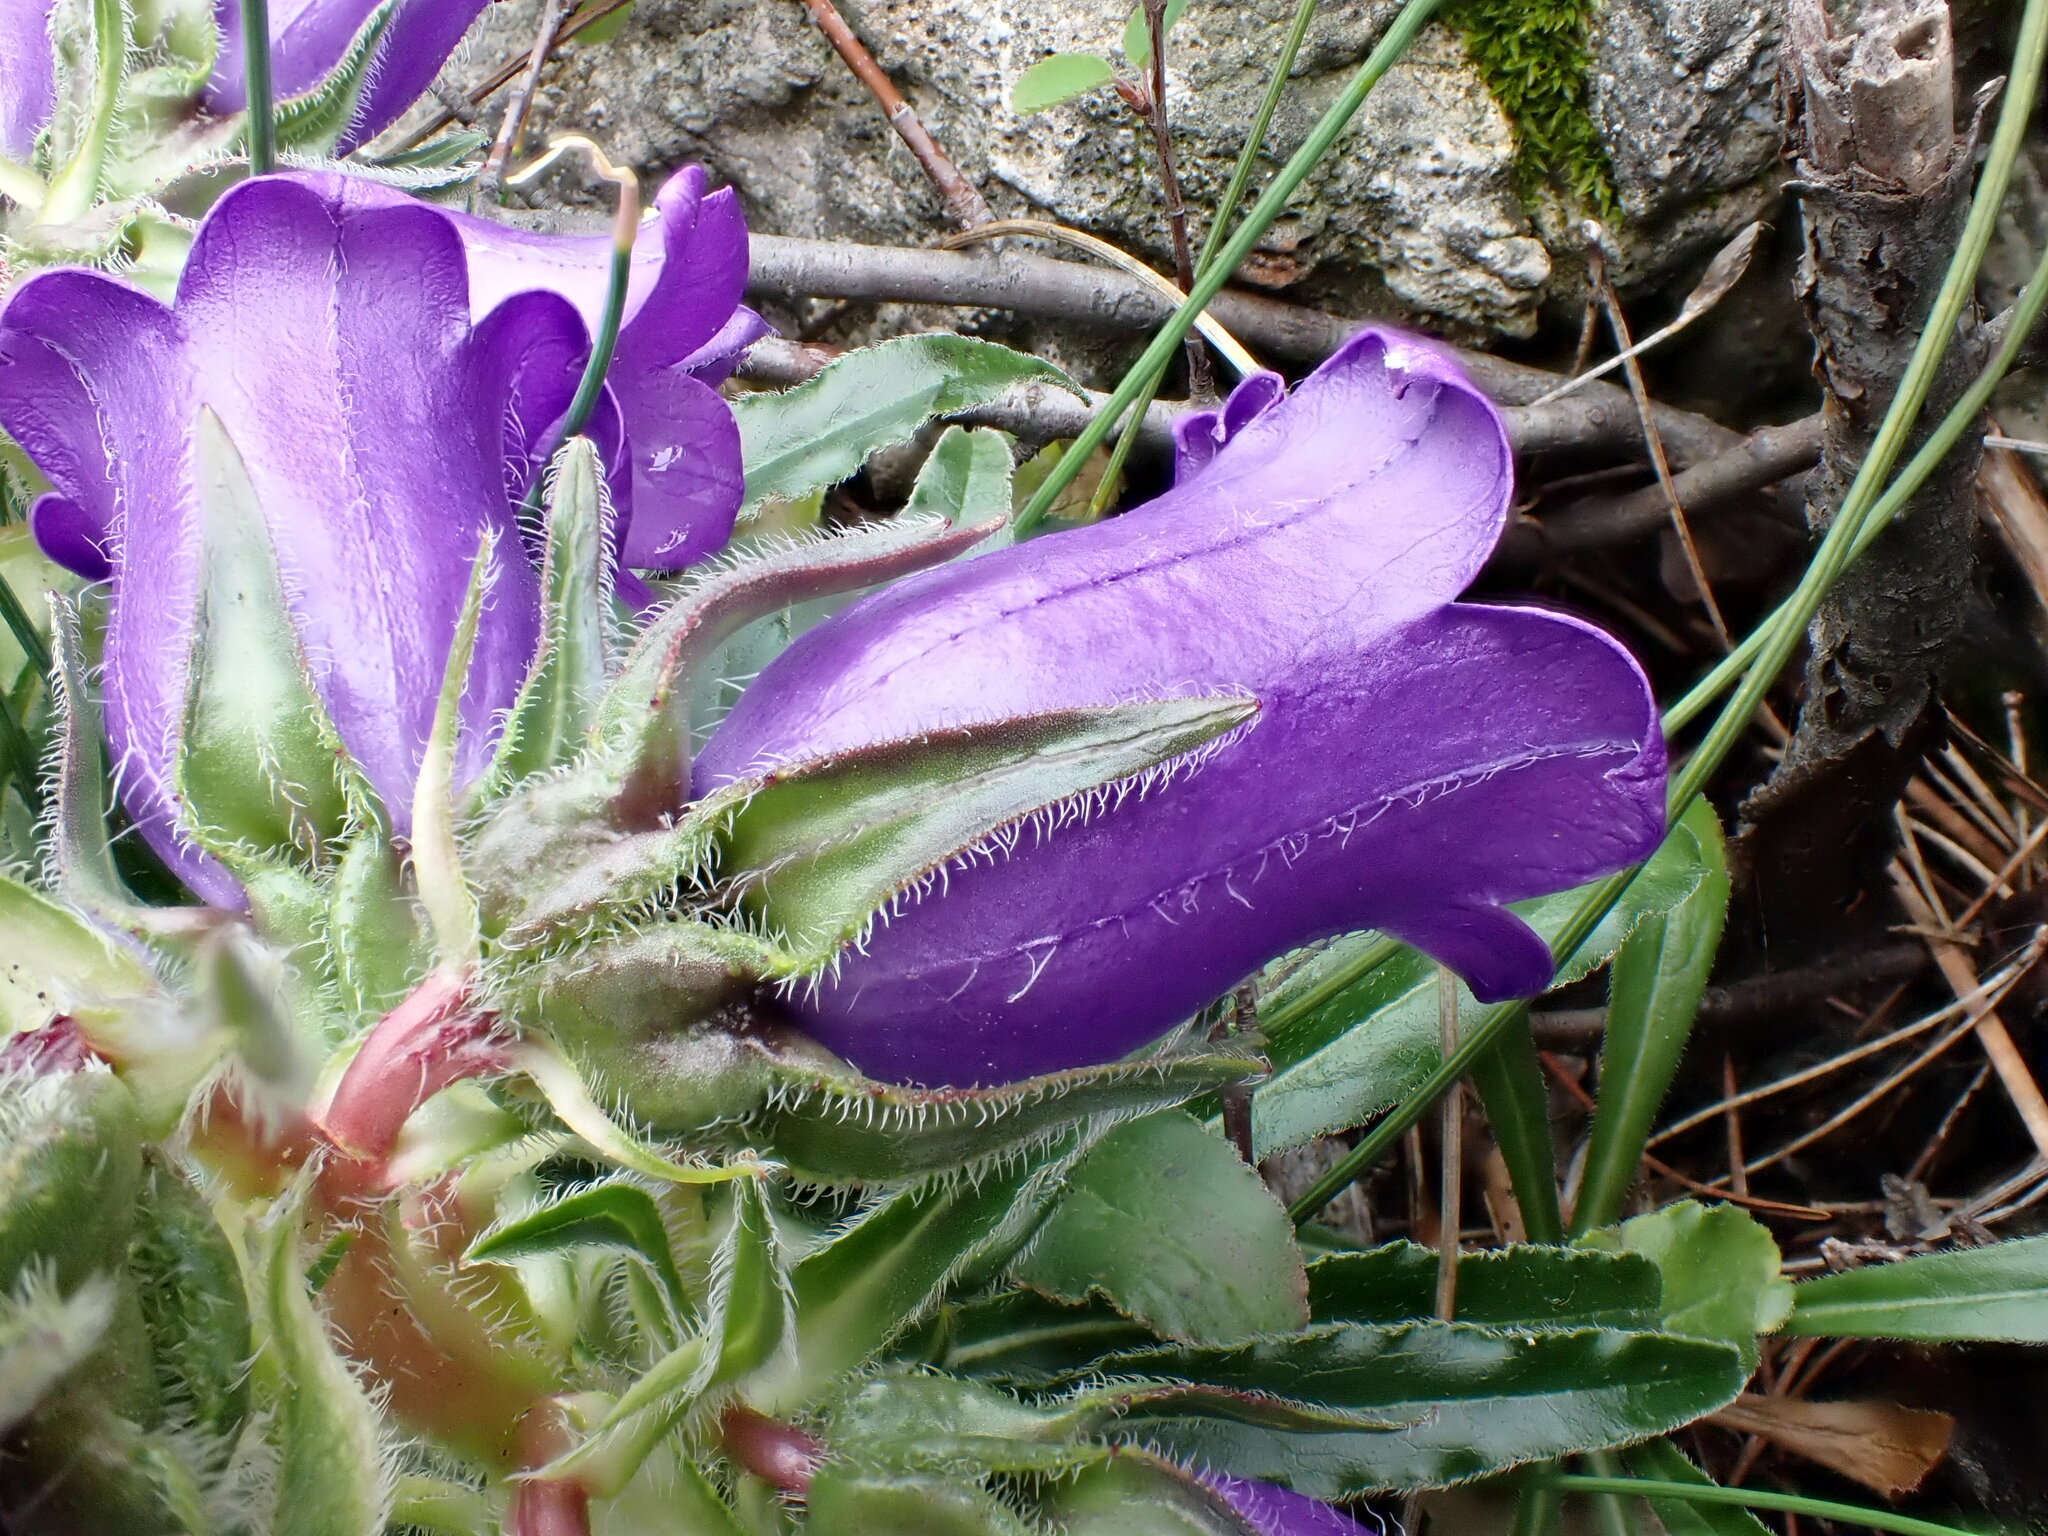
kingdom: Plantae
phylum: Tracheophyta
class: Magnoliopsida
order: Asterales
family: Campanulaceae
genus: Campanula
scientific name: Campanula speciosa
